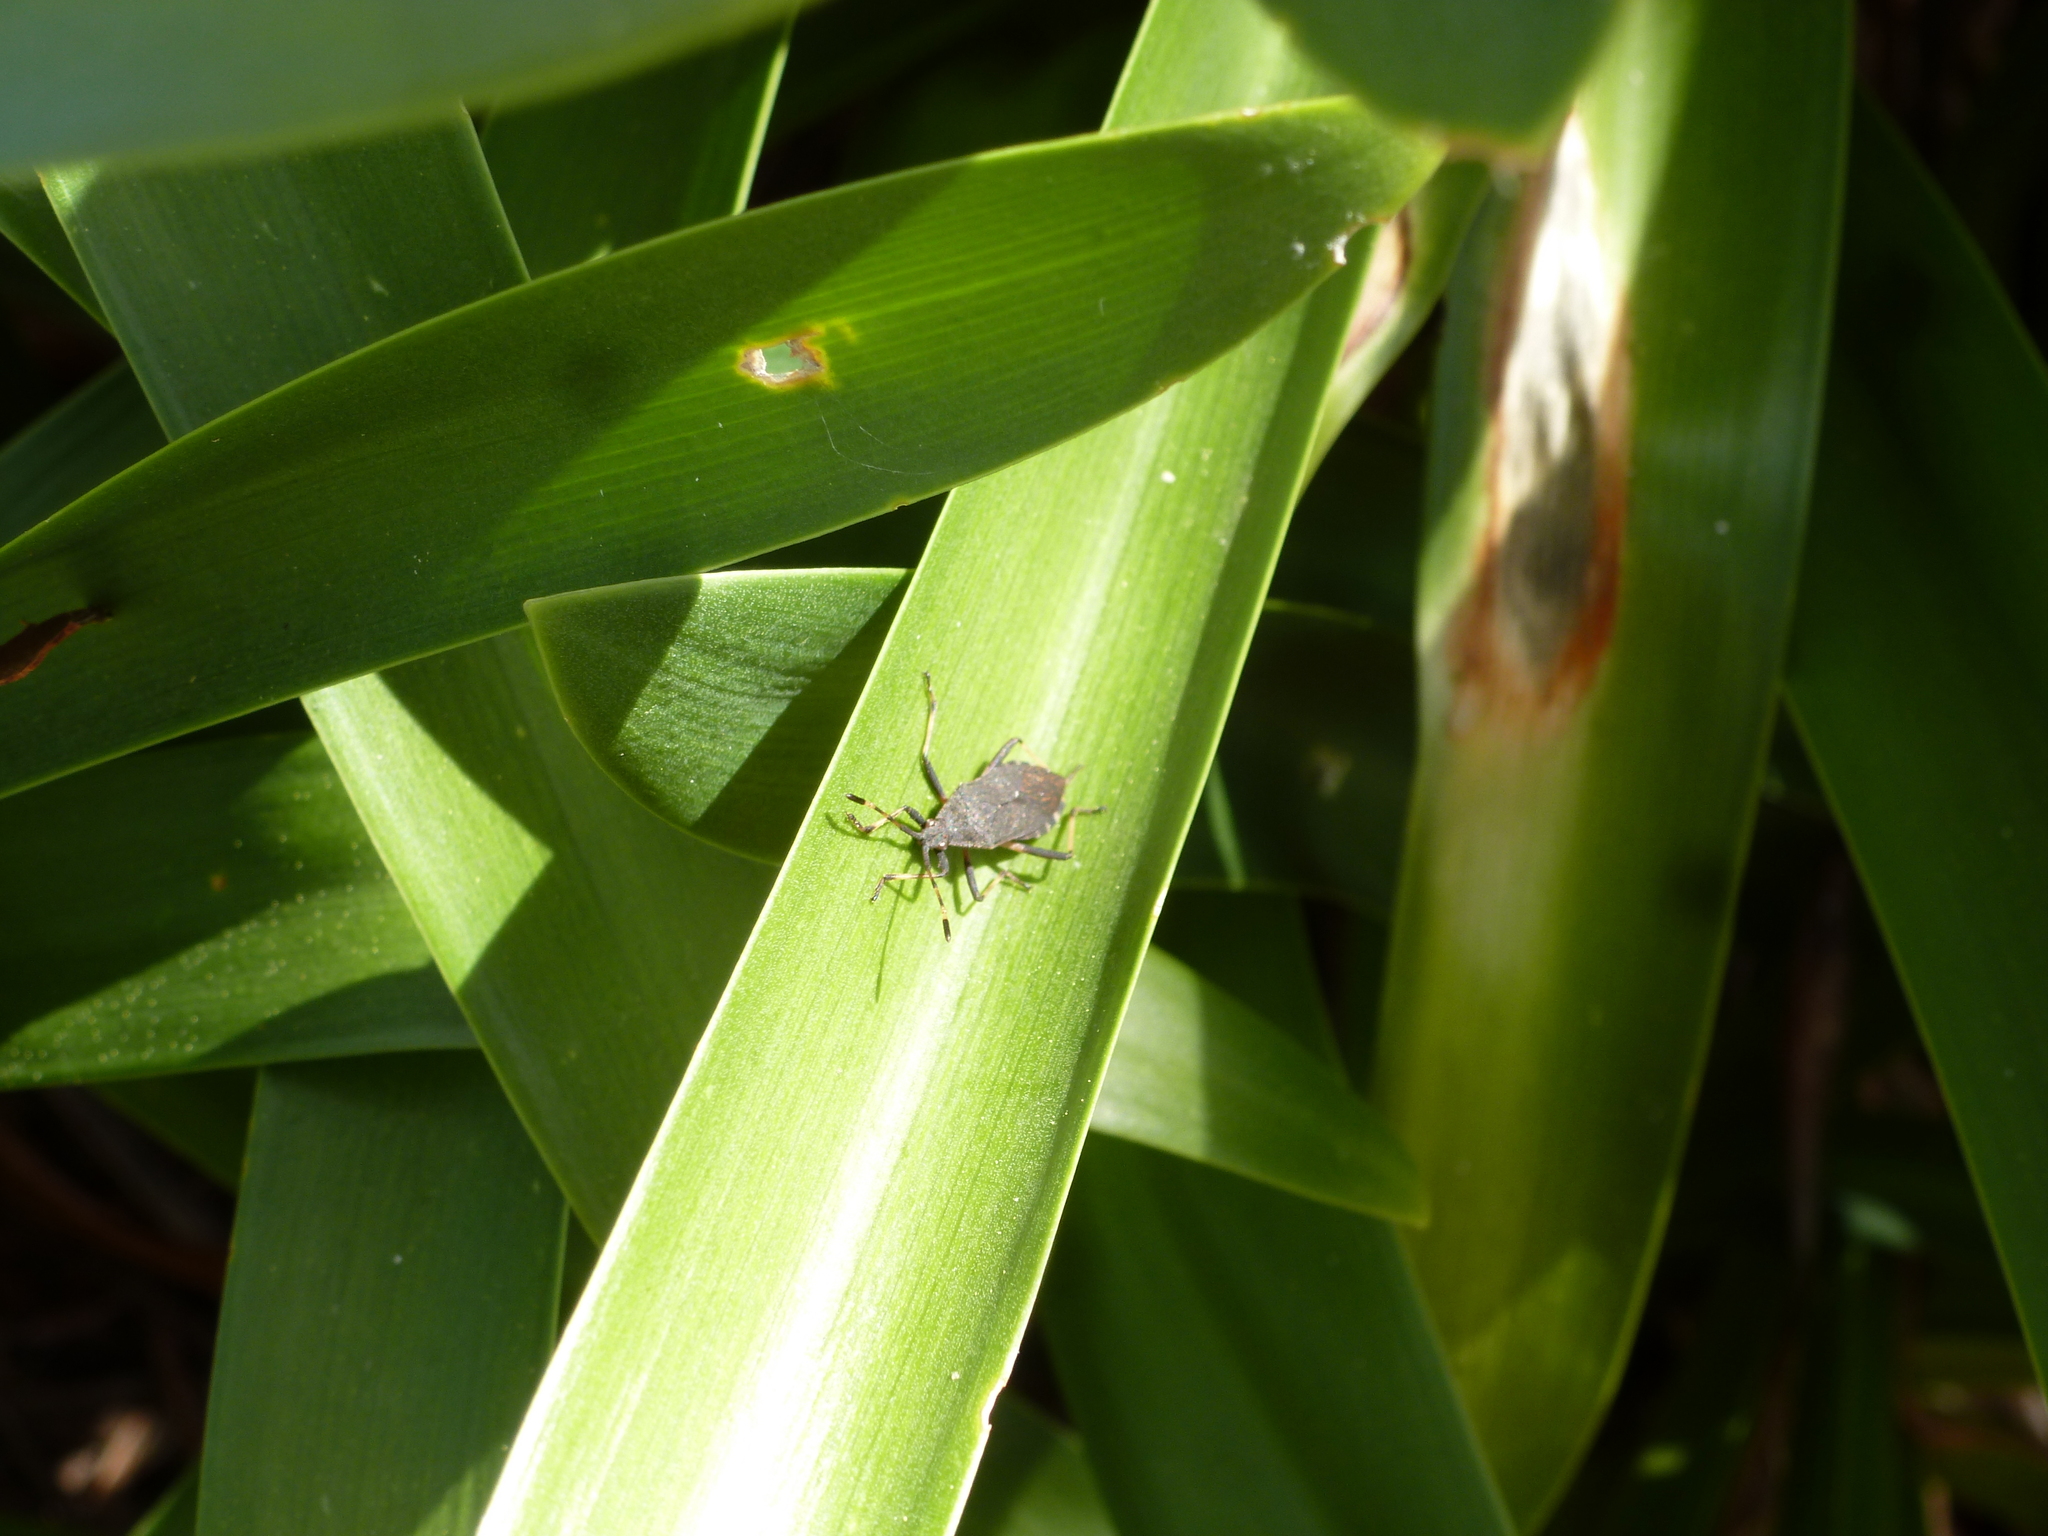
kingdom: Animalia
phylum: Arthropoda
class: Insecta
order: Hemiptera
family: Coreidae
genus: Gelonus
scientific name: Gelonus tasmanicus
